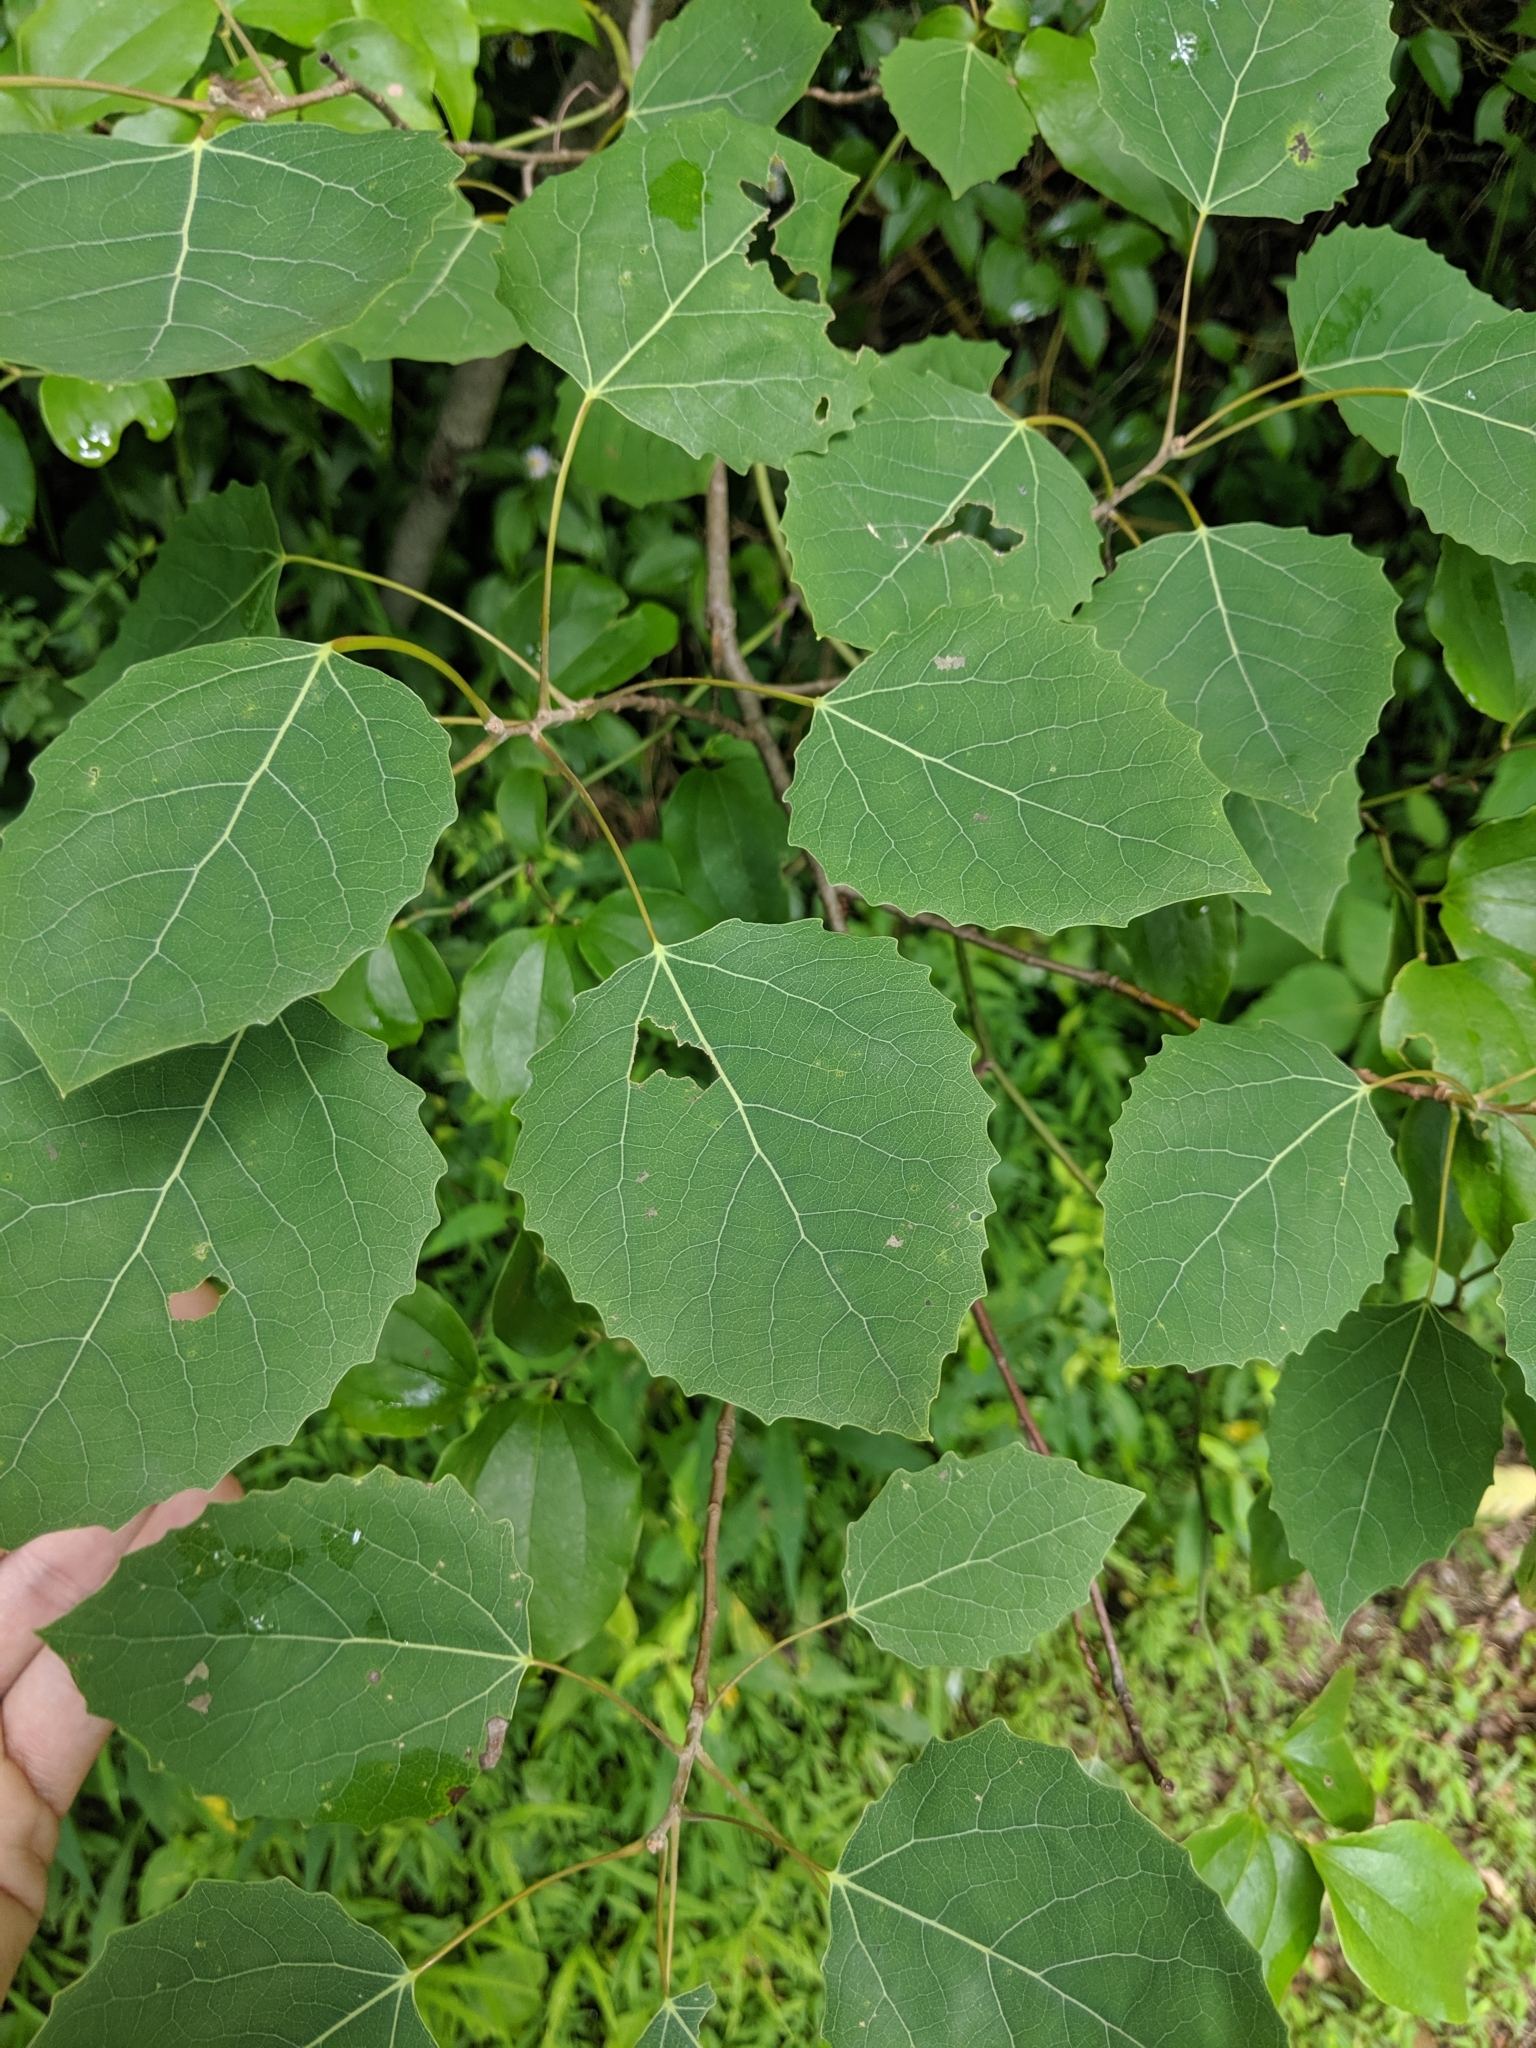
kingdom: Plantae
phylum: Tracheophyta
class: Magnoliopsida
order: Malpighiales
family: Salicaceae
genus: Populus
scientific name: Populus grandidentata
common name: Bigtooth aspen
